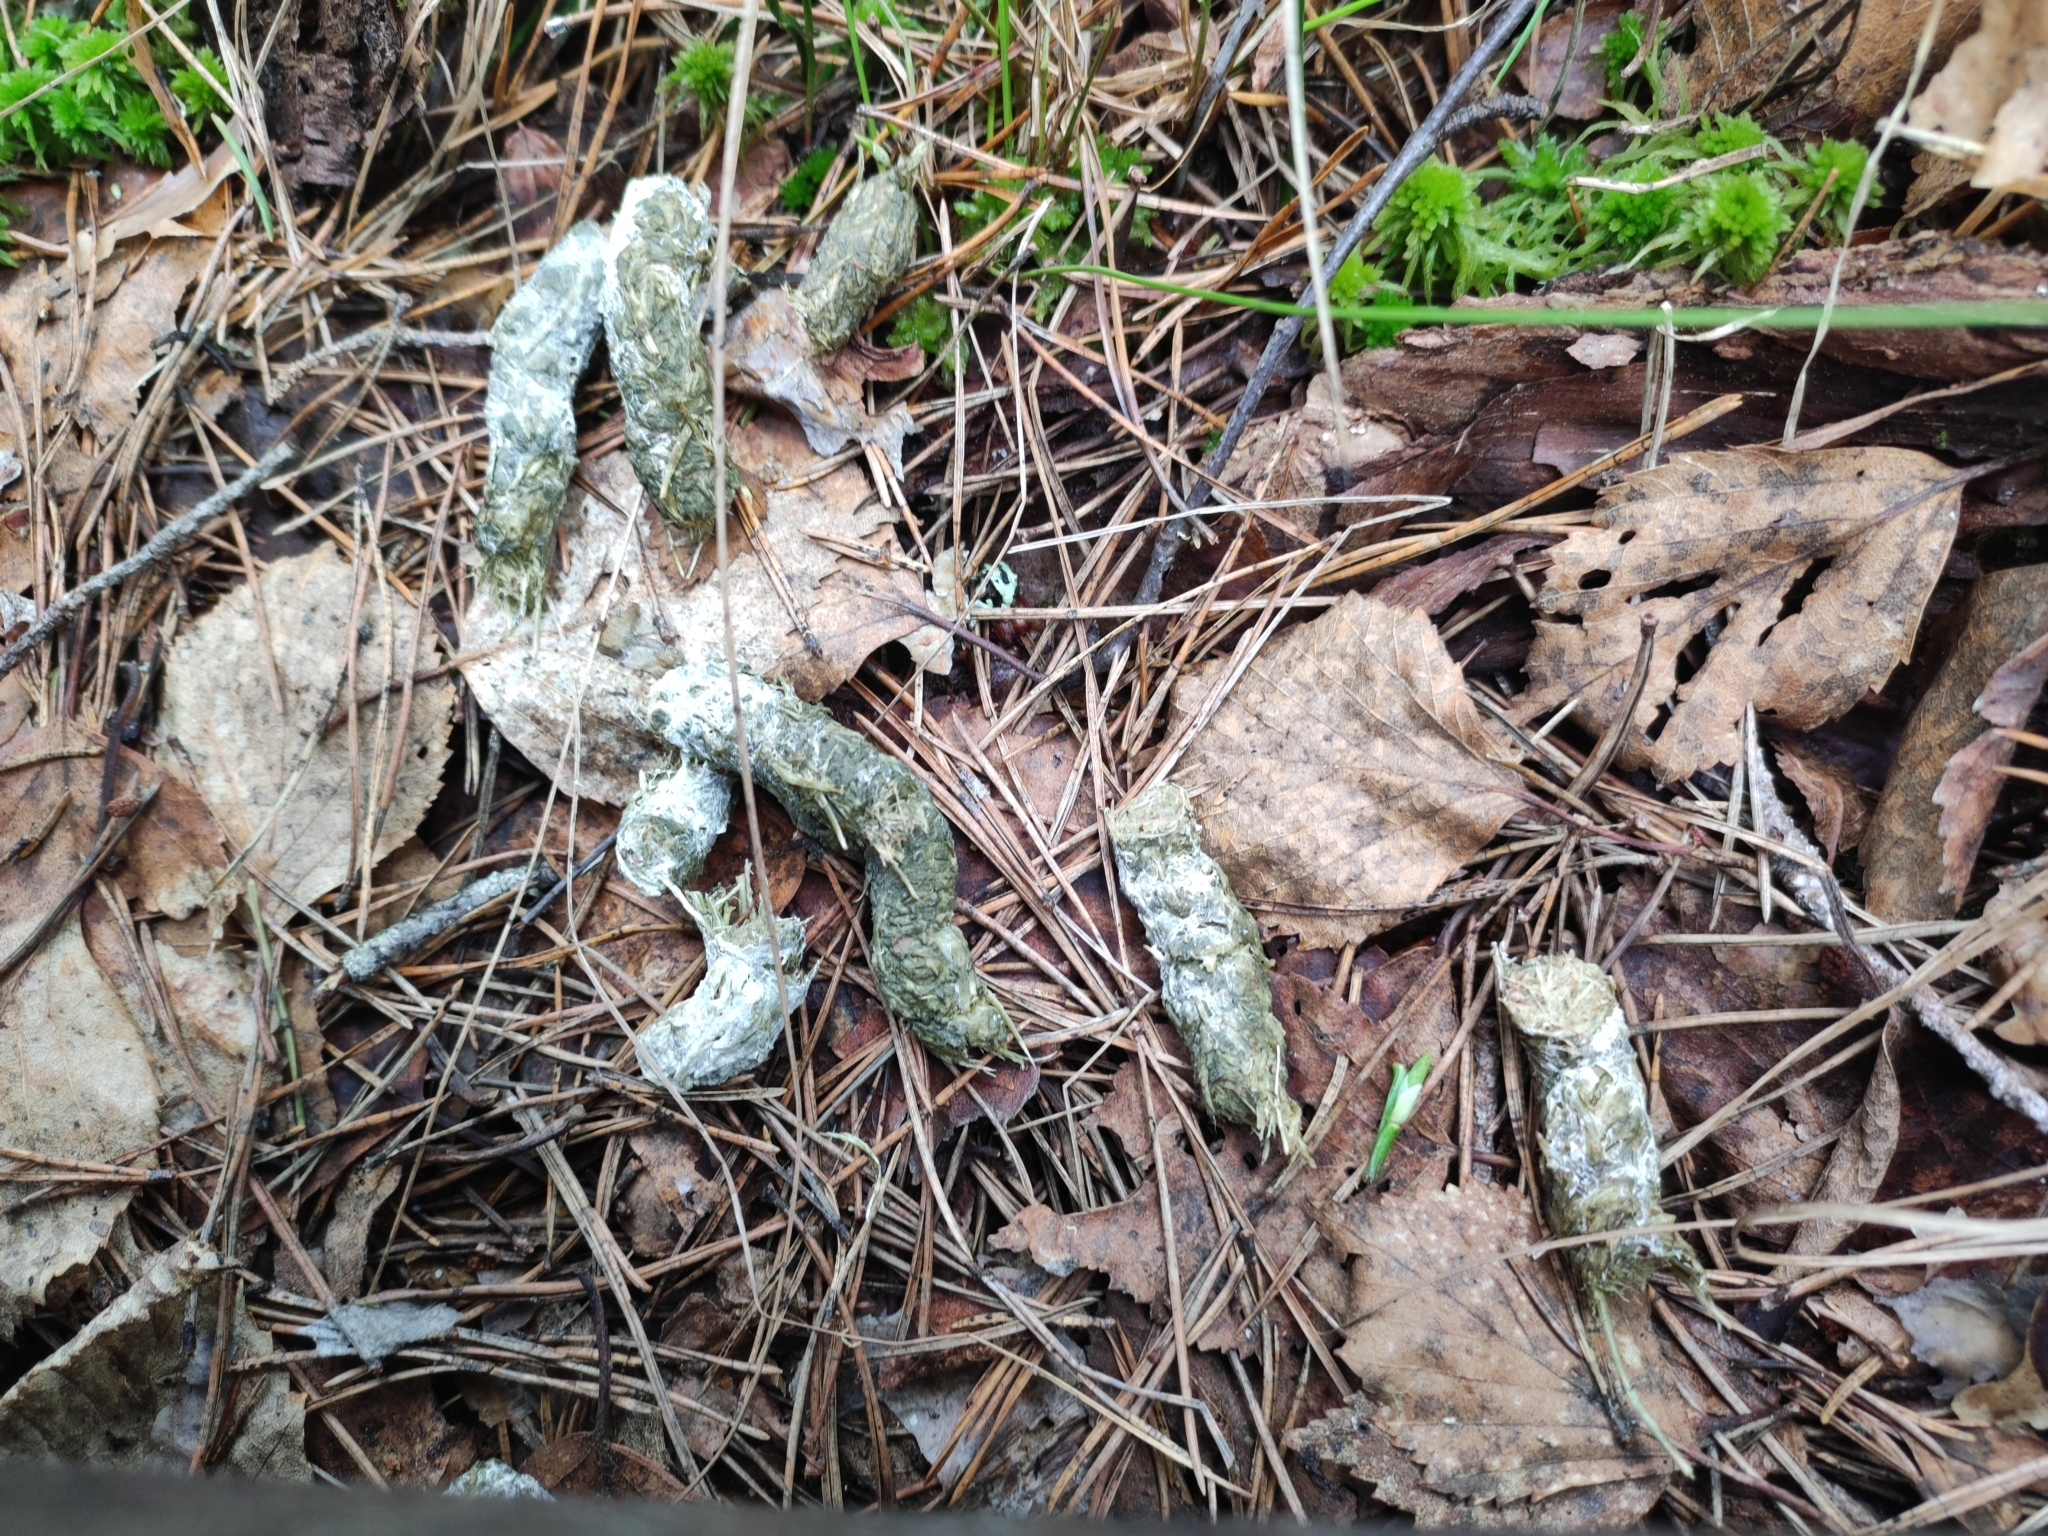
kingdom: Animalia
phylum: Chordata
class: Aves
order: Galliformes
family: Phasianidae
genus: Tetrao
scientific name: Tetrao urogallus
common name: Western capercaillie
